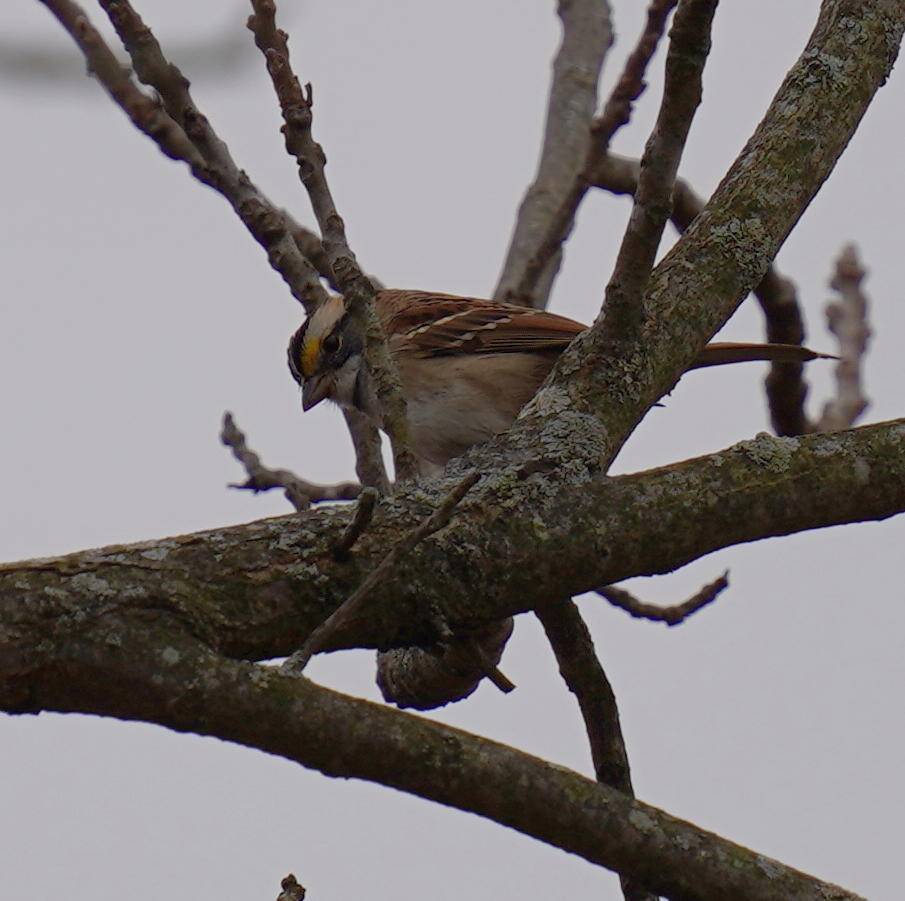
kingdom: Animalia
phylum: Chordata
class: Aves
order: Passeriformes
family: Passerellidae
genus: Zonotrichia
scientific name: Zonotrichia albicollis
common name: White-throated sparrow
